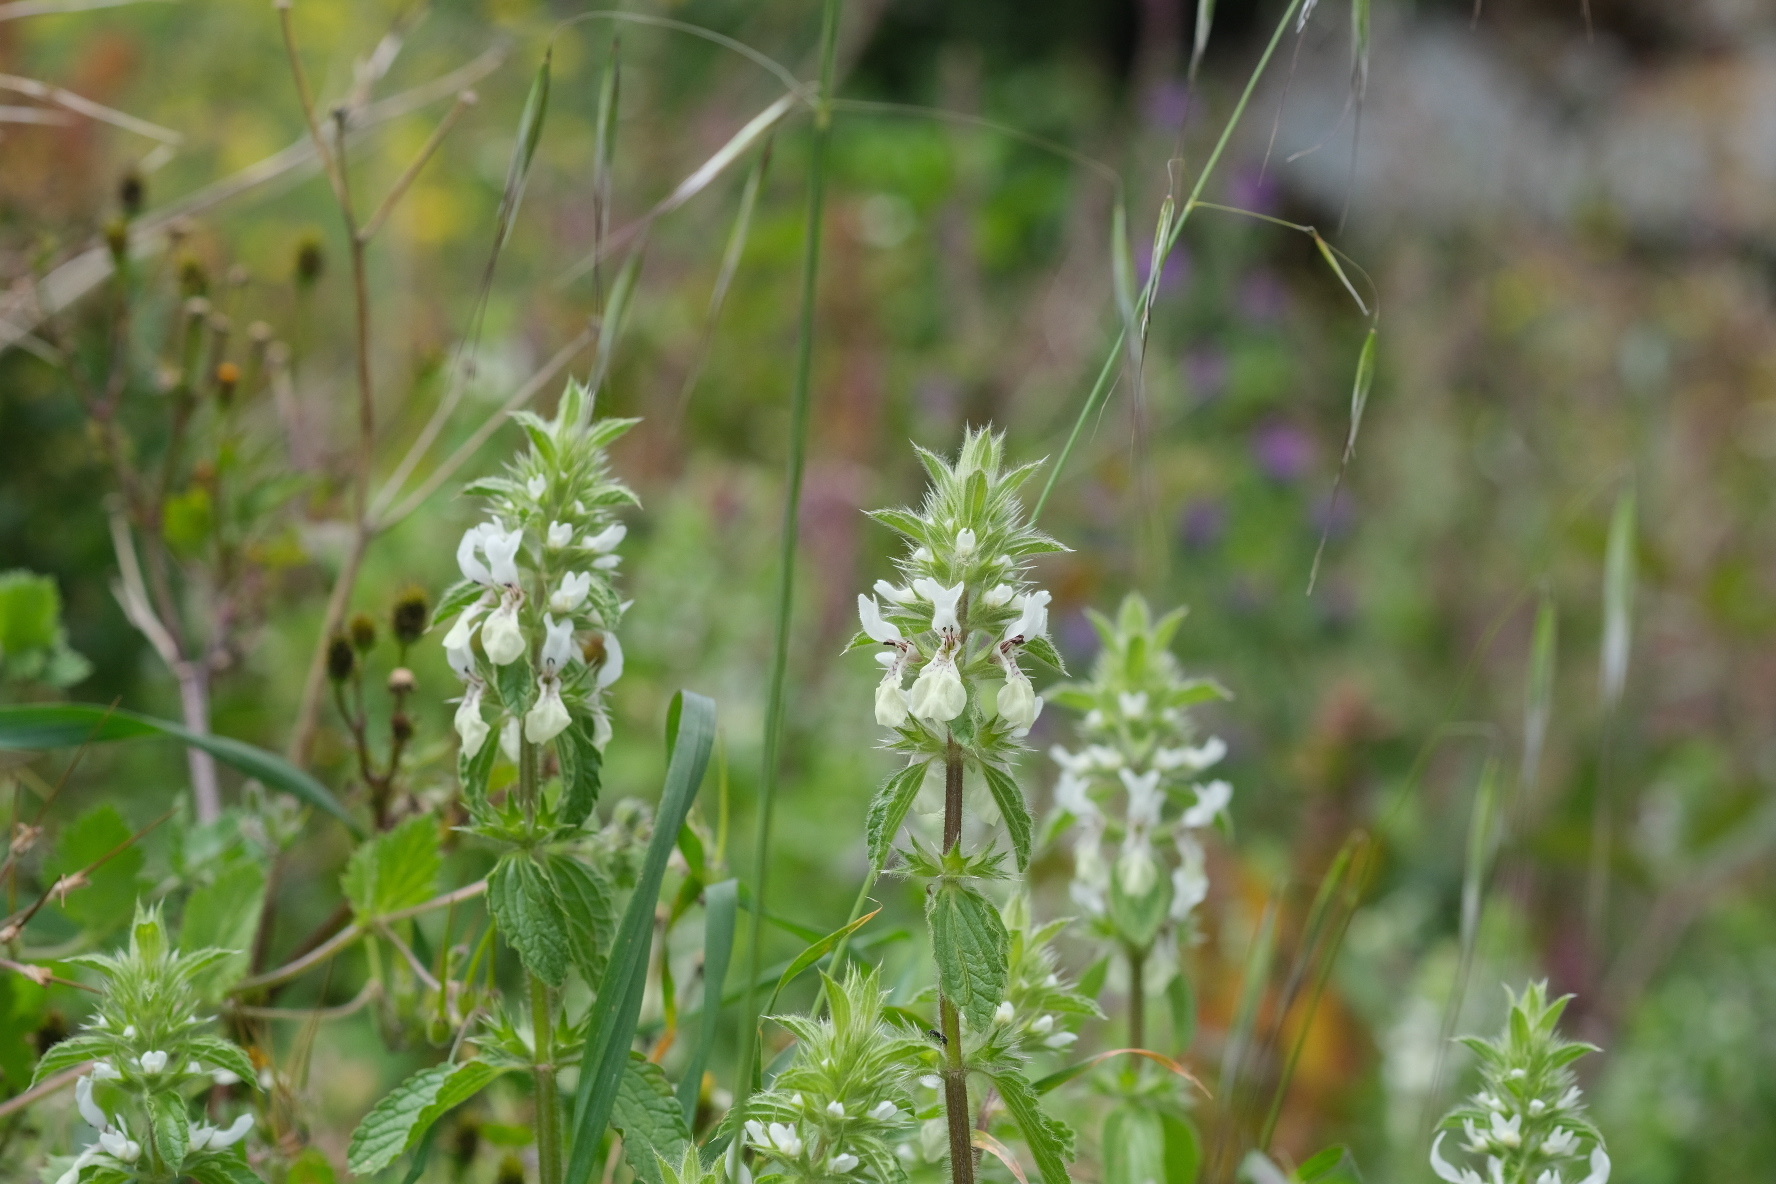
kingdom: Plantae
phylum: Tracheophyta
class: Magnoliopsida
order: Lamiales
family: Lamiaceae
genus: Stachys
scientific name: Stachys ocymastrum
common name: Italian hedgenettle
